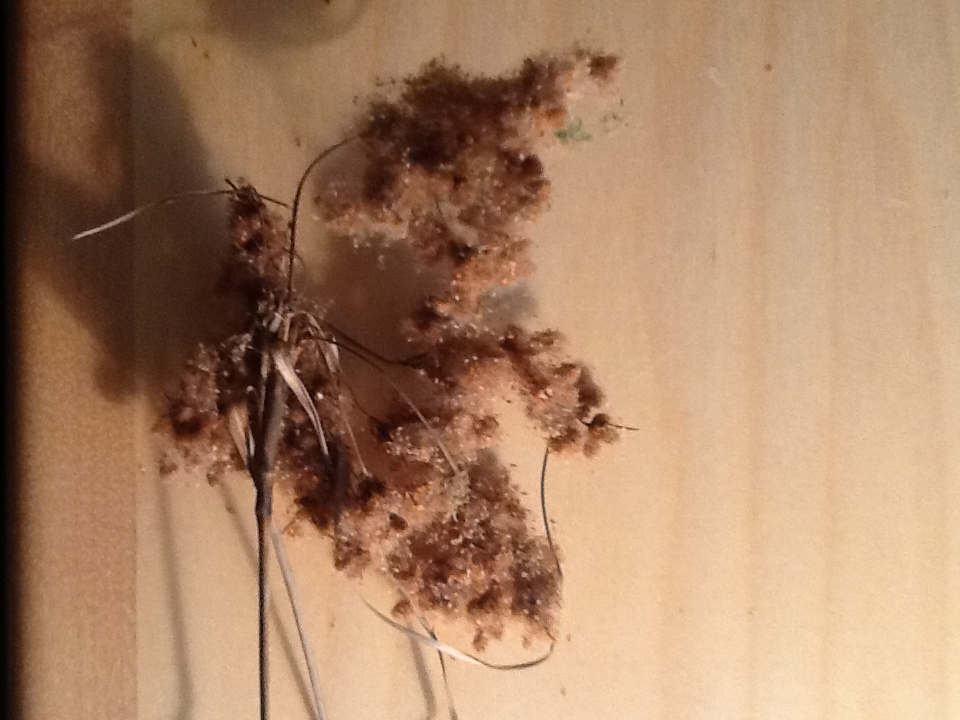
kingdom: Plantae
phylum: Tracheophyta
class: Liliopsida
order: Poales
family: Cyperaceae
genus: Scirpus
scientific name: Scirpus cyperinus
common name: Black-sheathed bulrush
